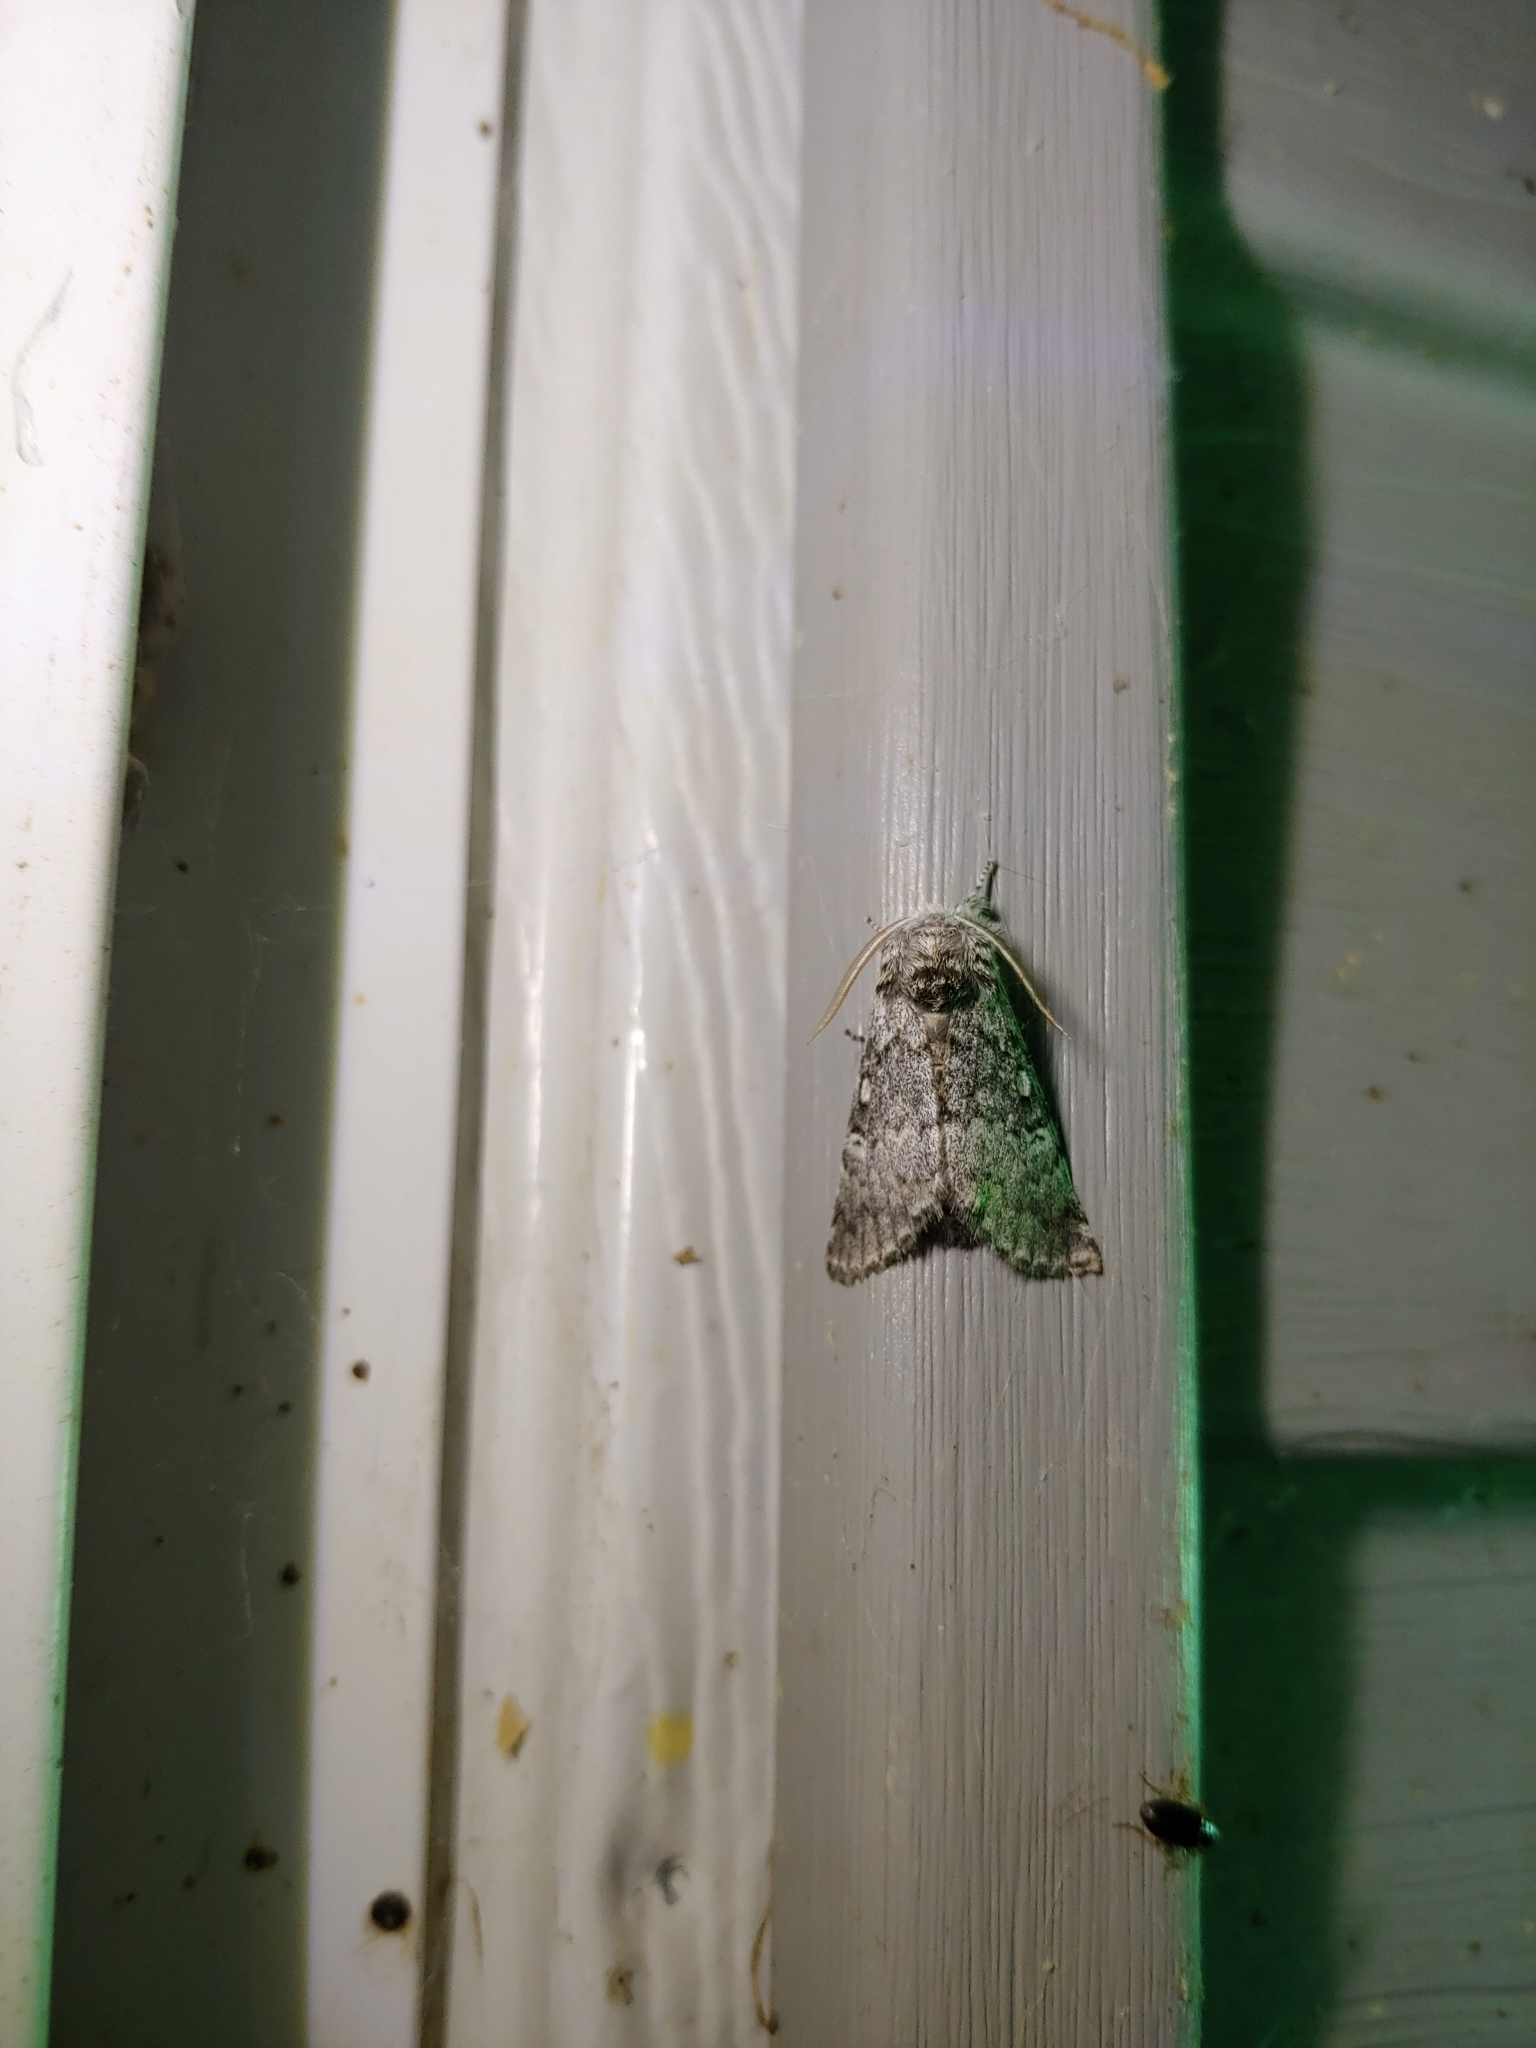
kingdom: Animalia
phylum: Arthropoda
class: Insecta
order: Lepidoptera
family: Noctuidae
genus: Colocasia
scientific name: Colocasia propinquilinea
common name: Close-banded demas
